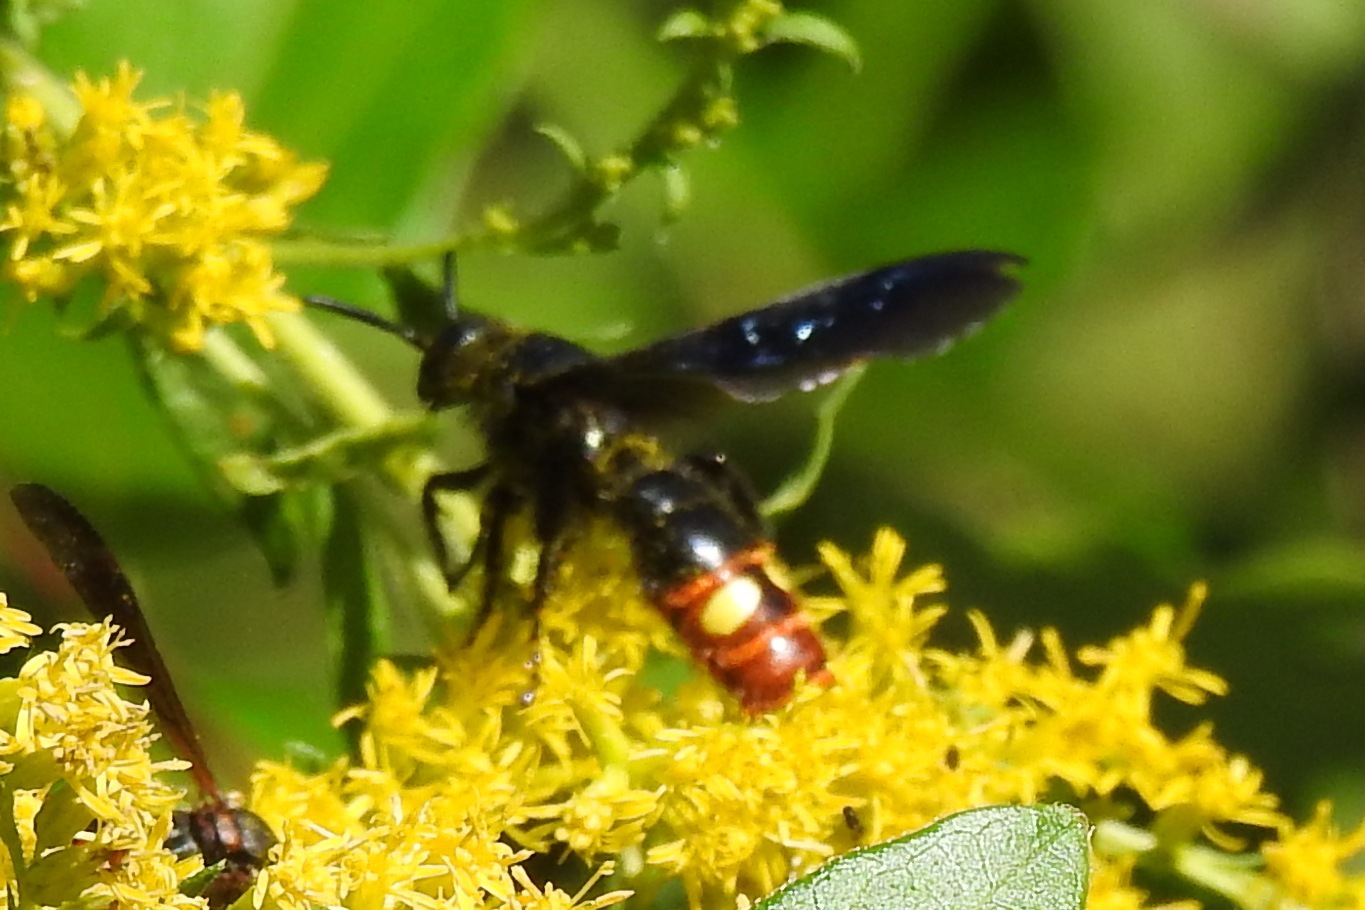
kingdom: Animalia
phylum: Arthropoda
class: Insecta
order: Hymenoptera
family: Scoliidae
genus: Scolia
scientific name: Scolia dubia
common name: Blue-winged scoliid wasp
